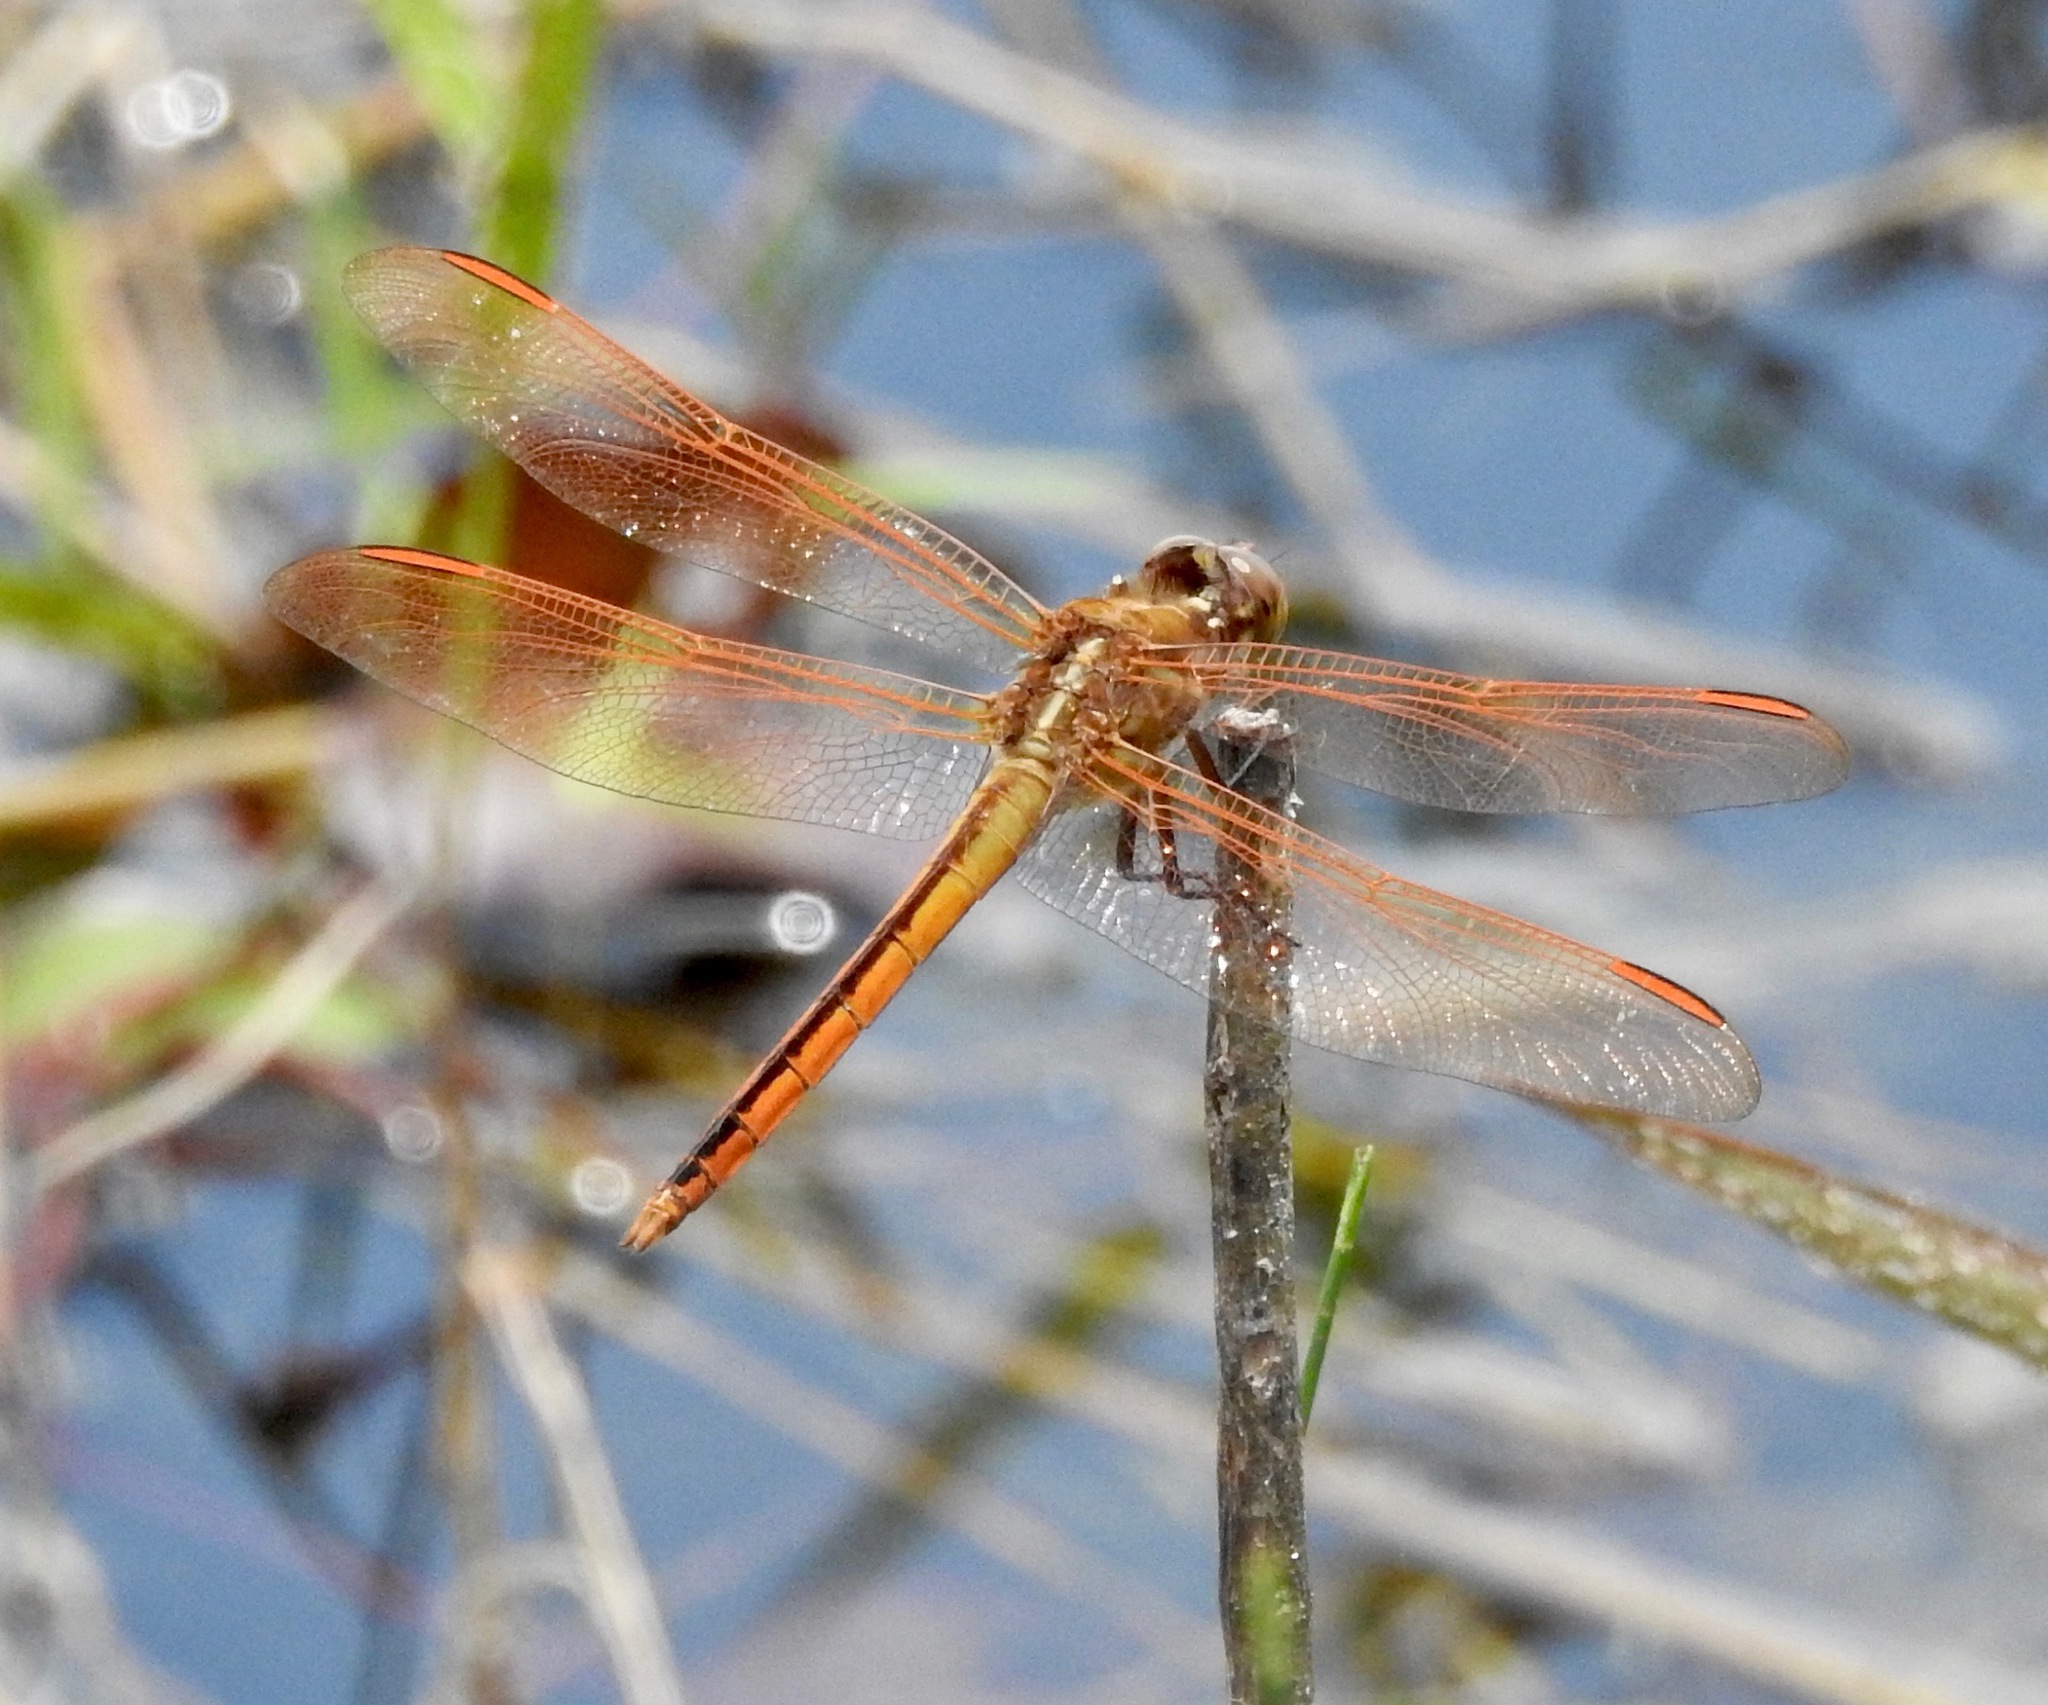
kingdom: Animalia
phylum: Arthropoda
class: Insecta
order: Odonata
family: Libellulidae
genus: Libellula
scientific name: Libellula auripennis
